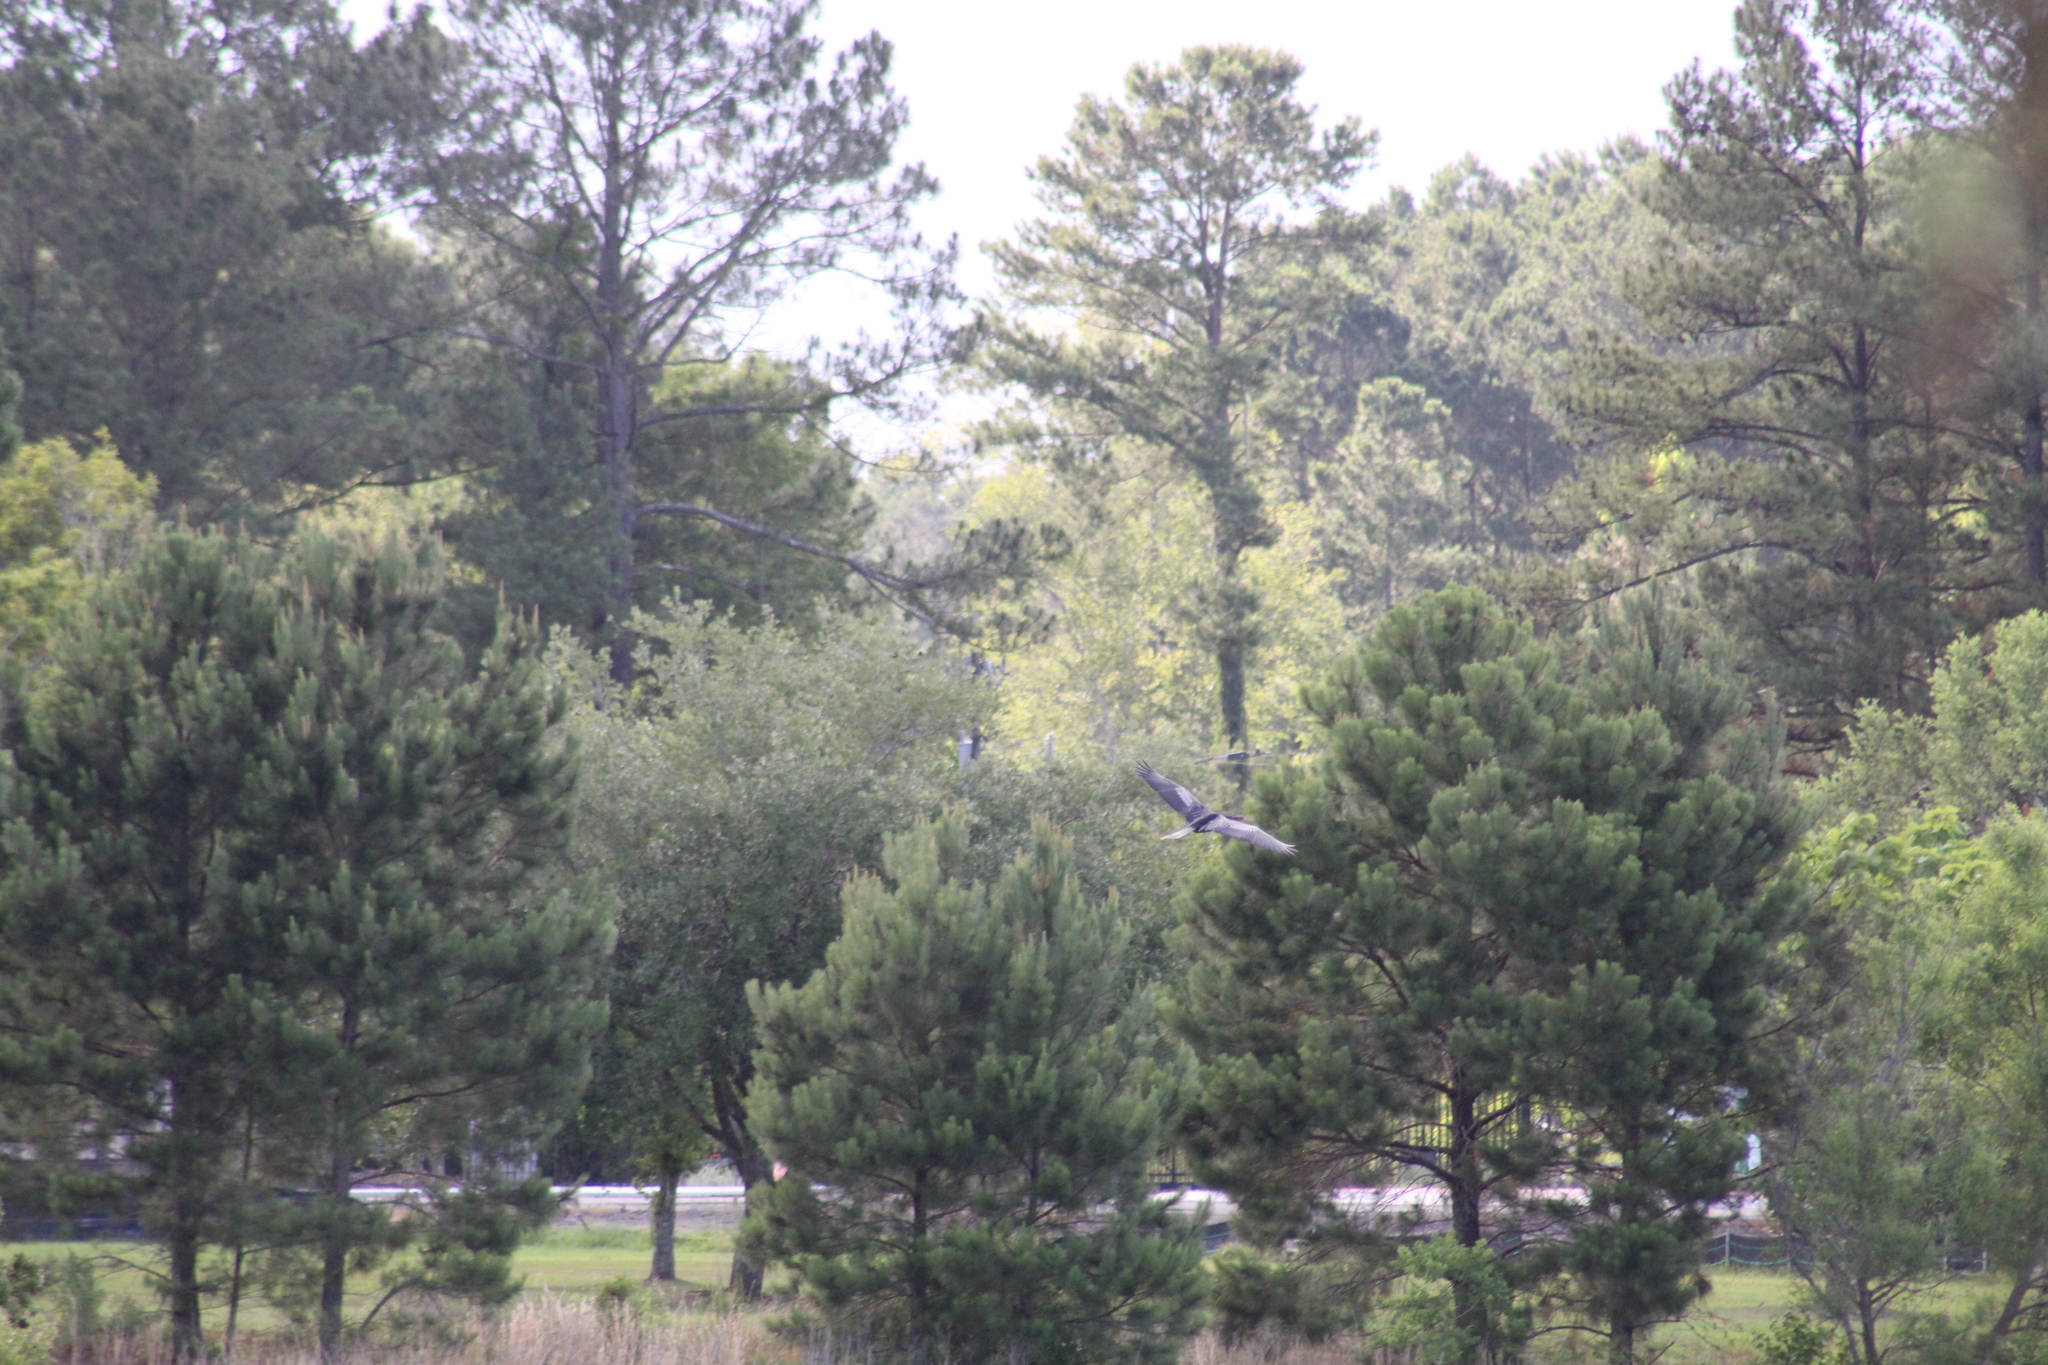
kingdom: Animalia
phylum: Chordata
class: Aves
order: Suliformes
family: Anhingidae
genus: Anhinga
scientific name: Anhinga anhinga
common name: Anhinga
